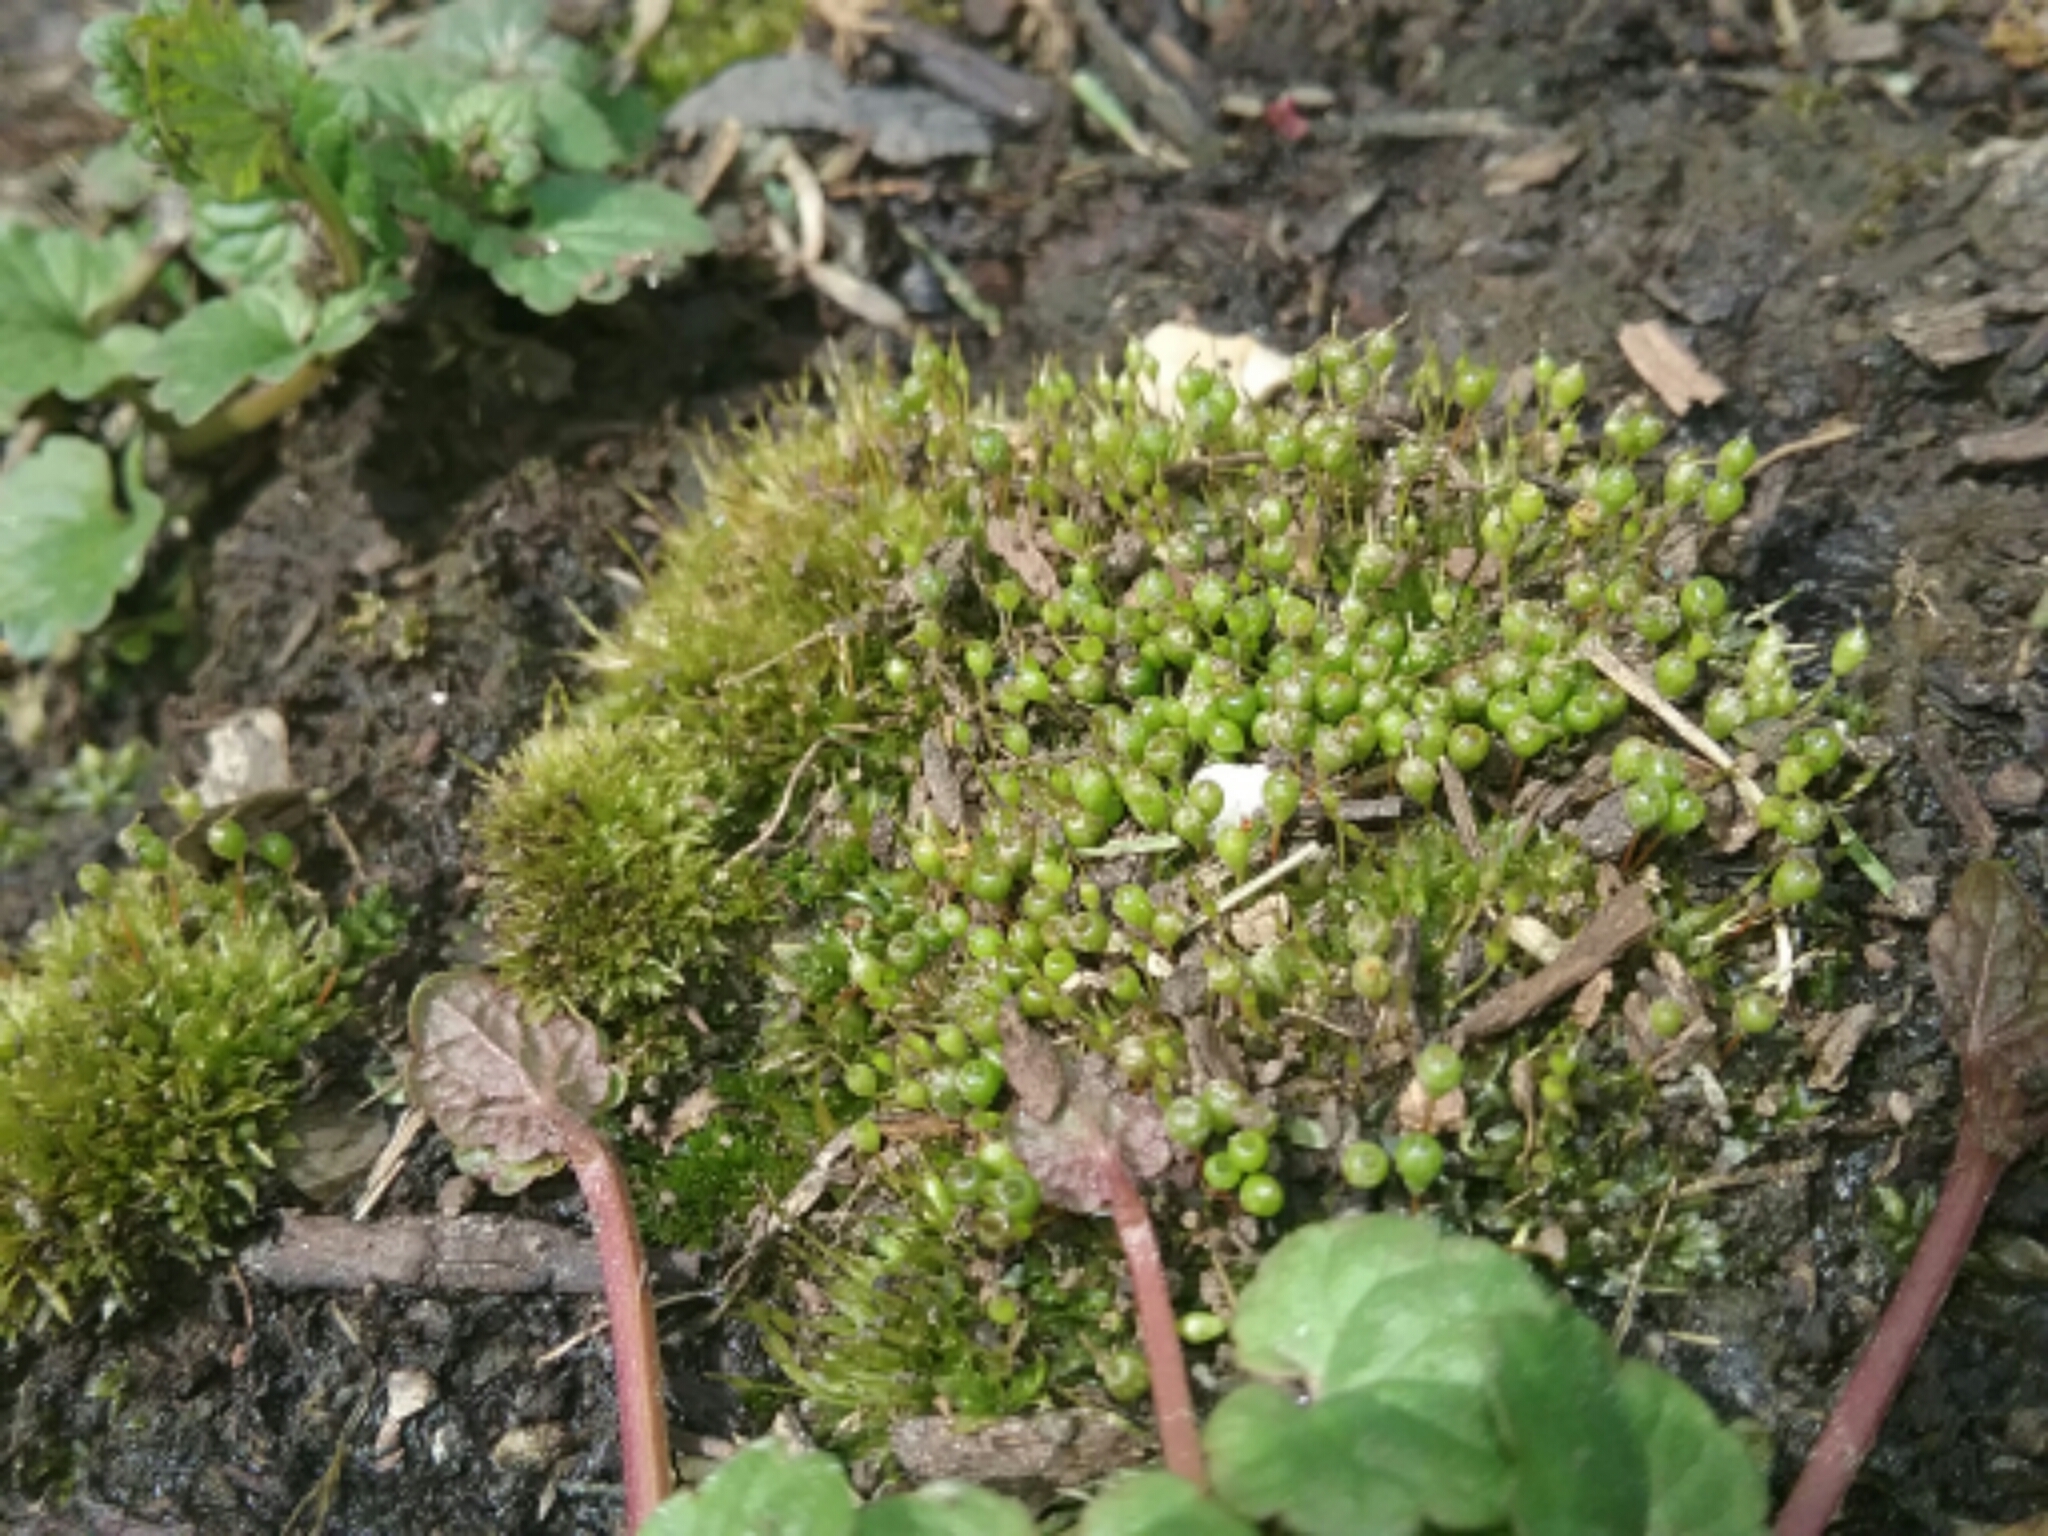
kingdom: Plantae
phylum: Bryophyta
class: Bryopsida
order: Funariales
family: Funariaceae
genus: Physcomitrium
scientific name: Physcomitrium pyriforme
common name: Common bladder-moss
